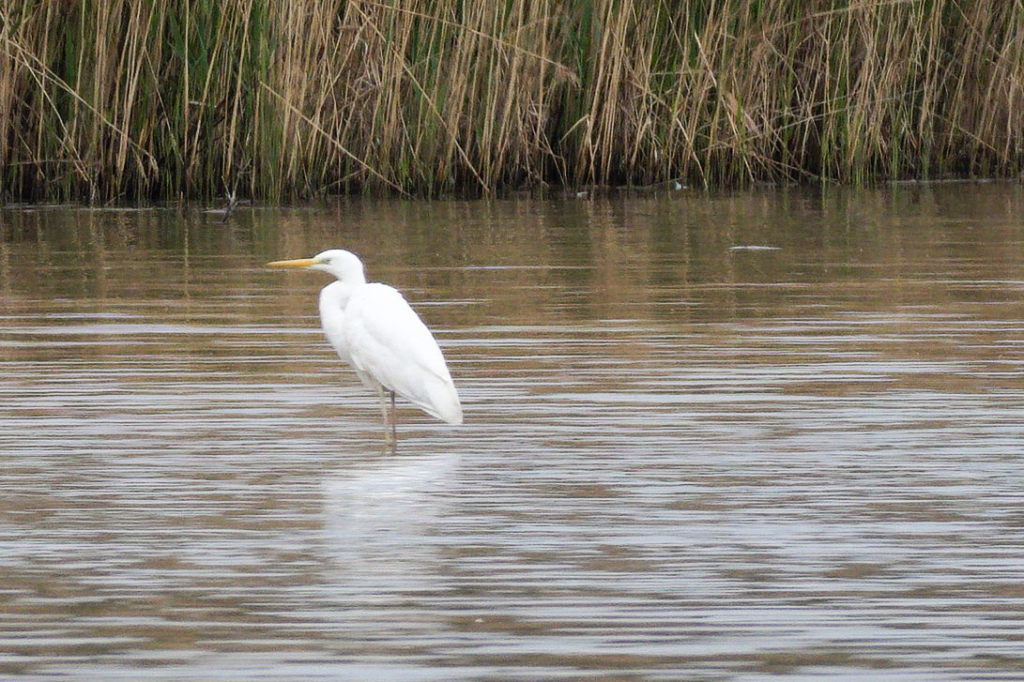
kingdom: Animalia
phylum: Chordata
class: Aves
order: Pelecaniformes
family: Ardeidae
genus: Ardea
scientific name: Ardea alba
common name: Great egret
